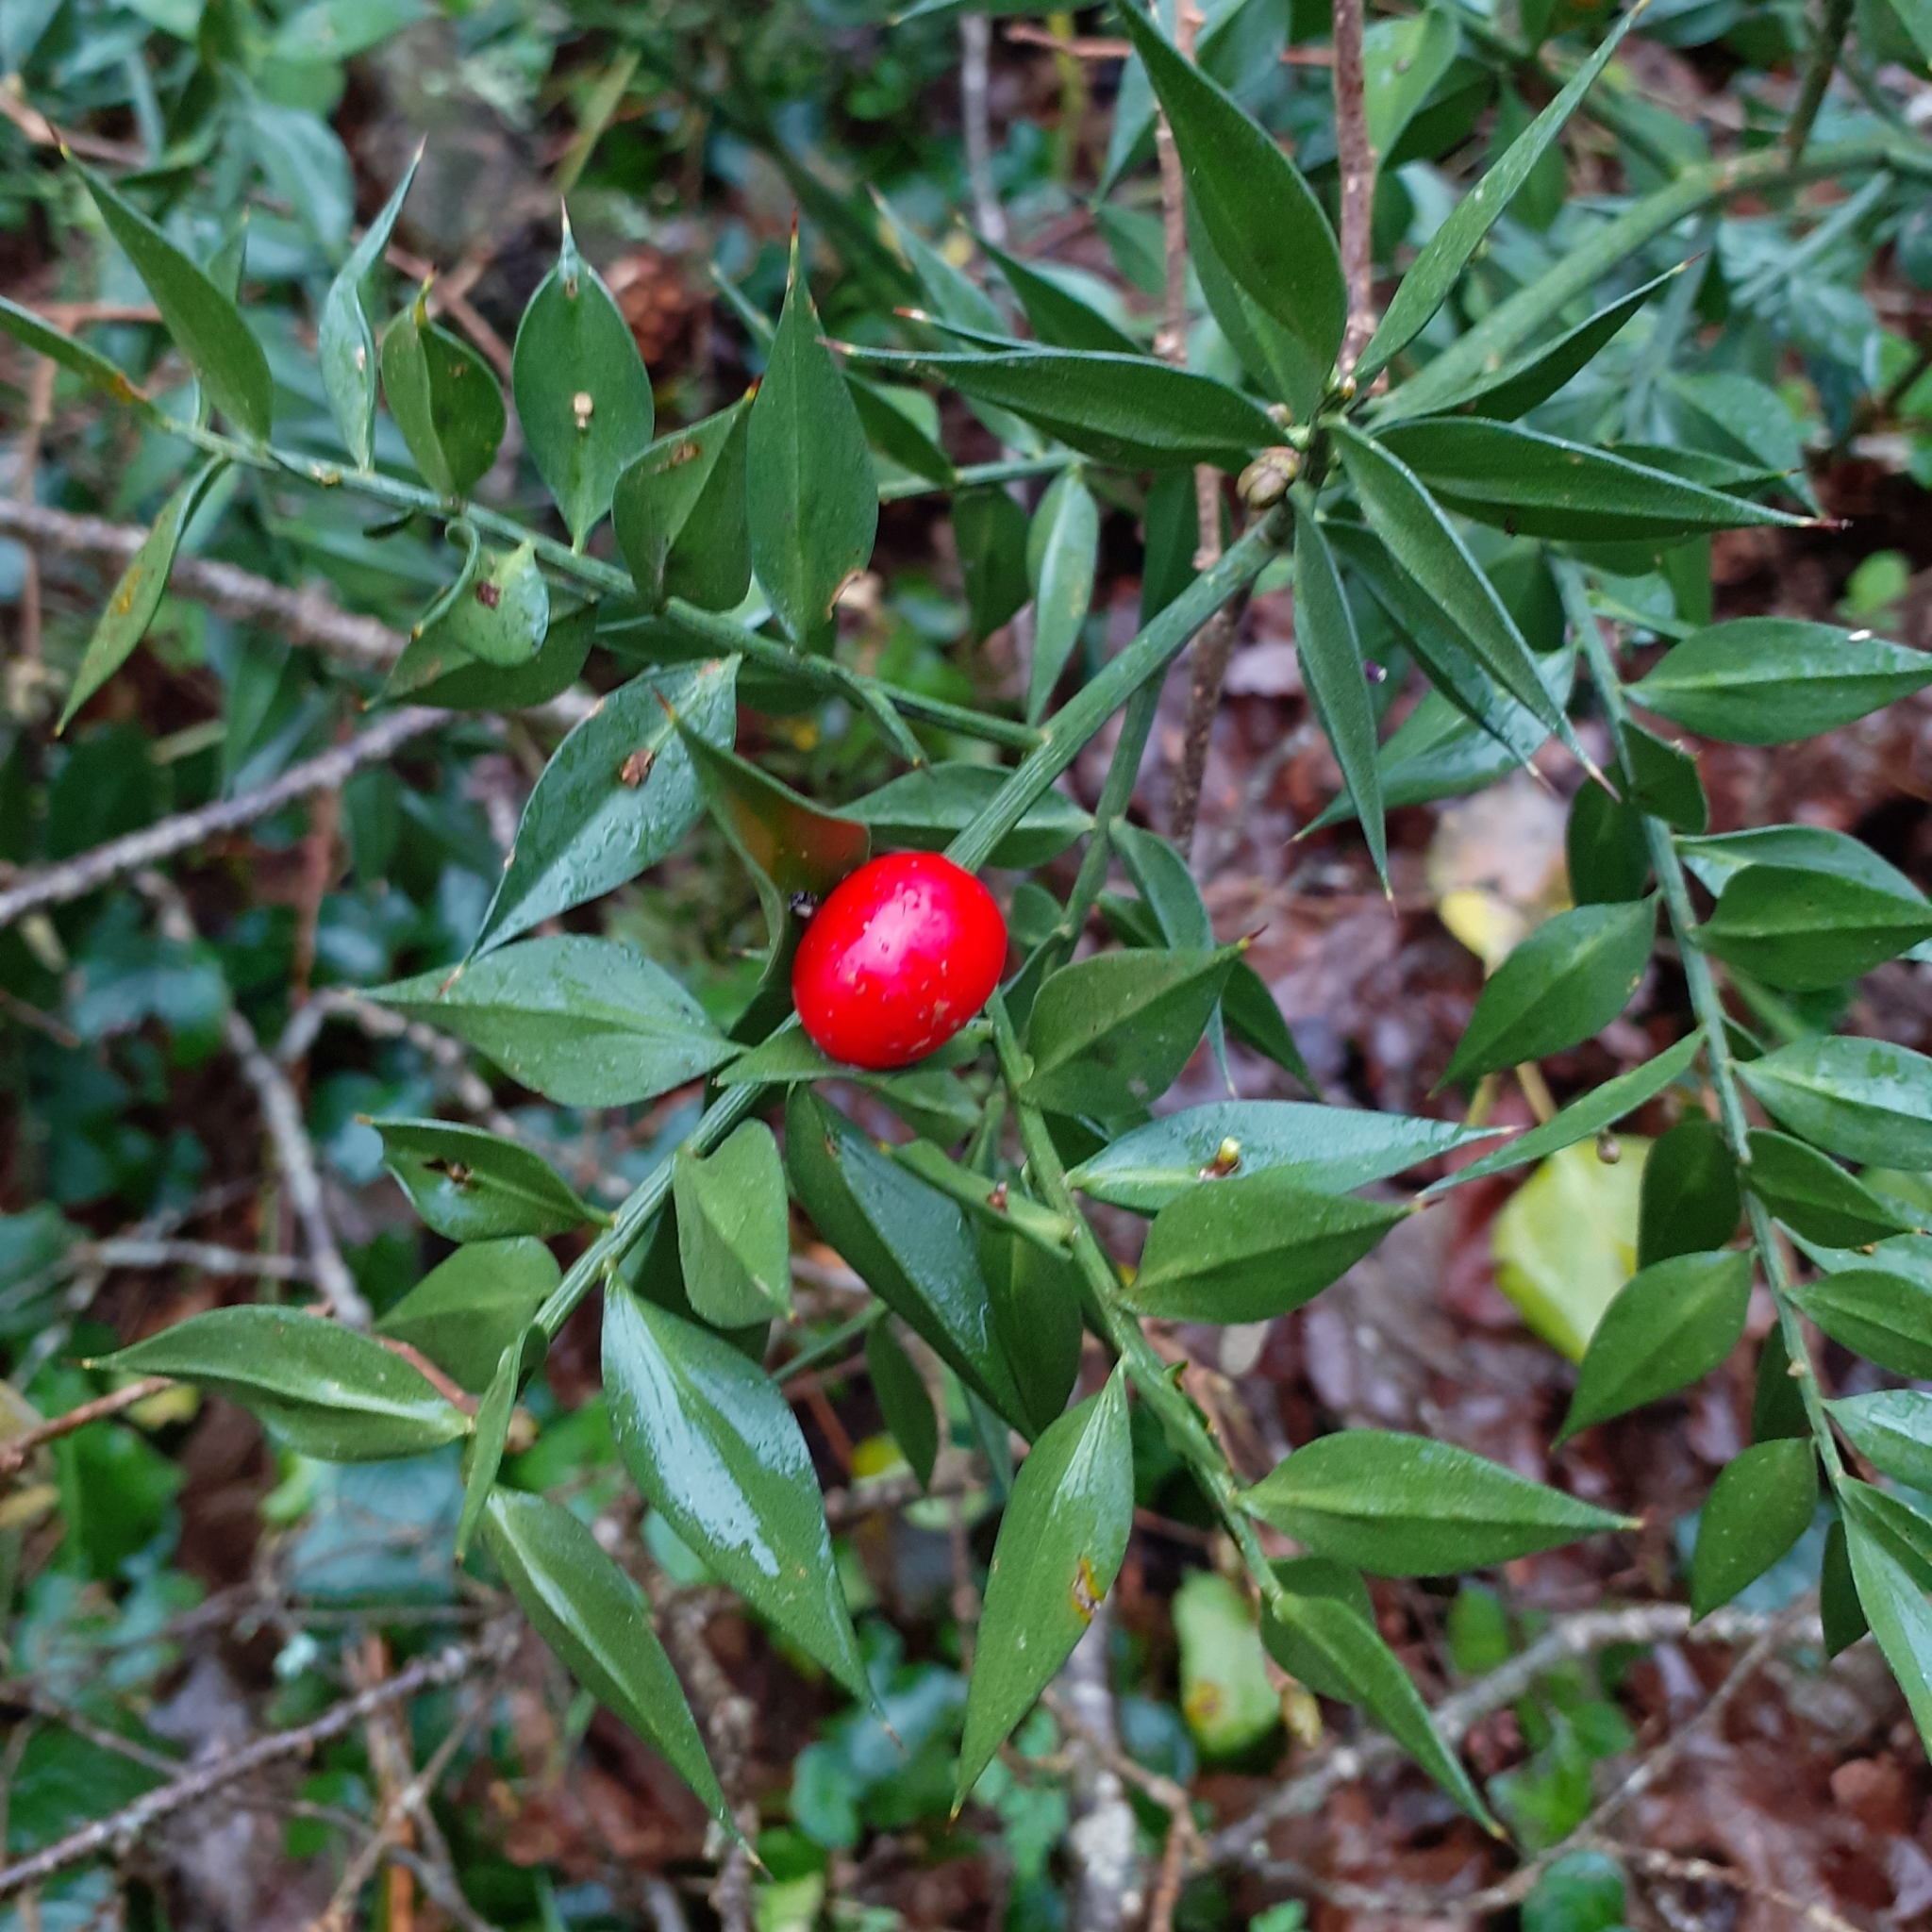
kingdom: Plantae
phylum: Tracheophyta
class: Liliopsida
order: Asparagales
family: Asparagaceae
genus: Ruscus
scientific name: Ruscus aculeatus
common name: Butcher's-broom
